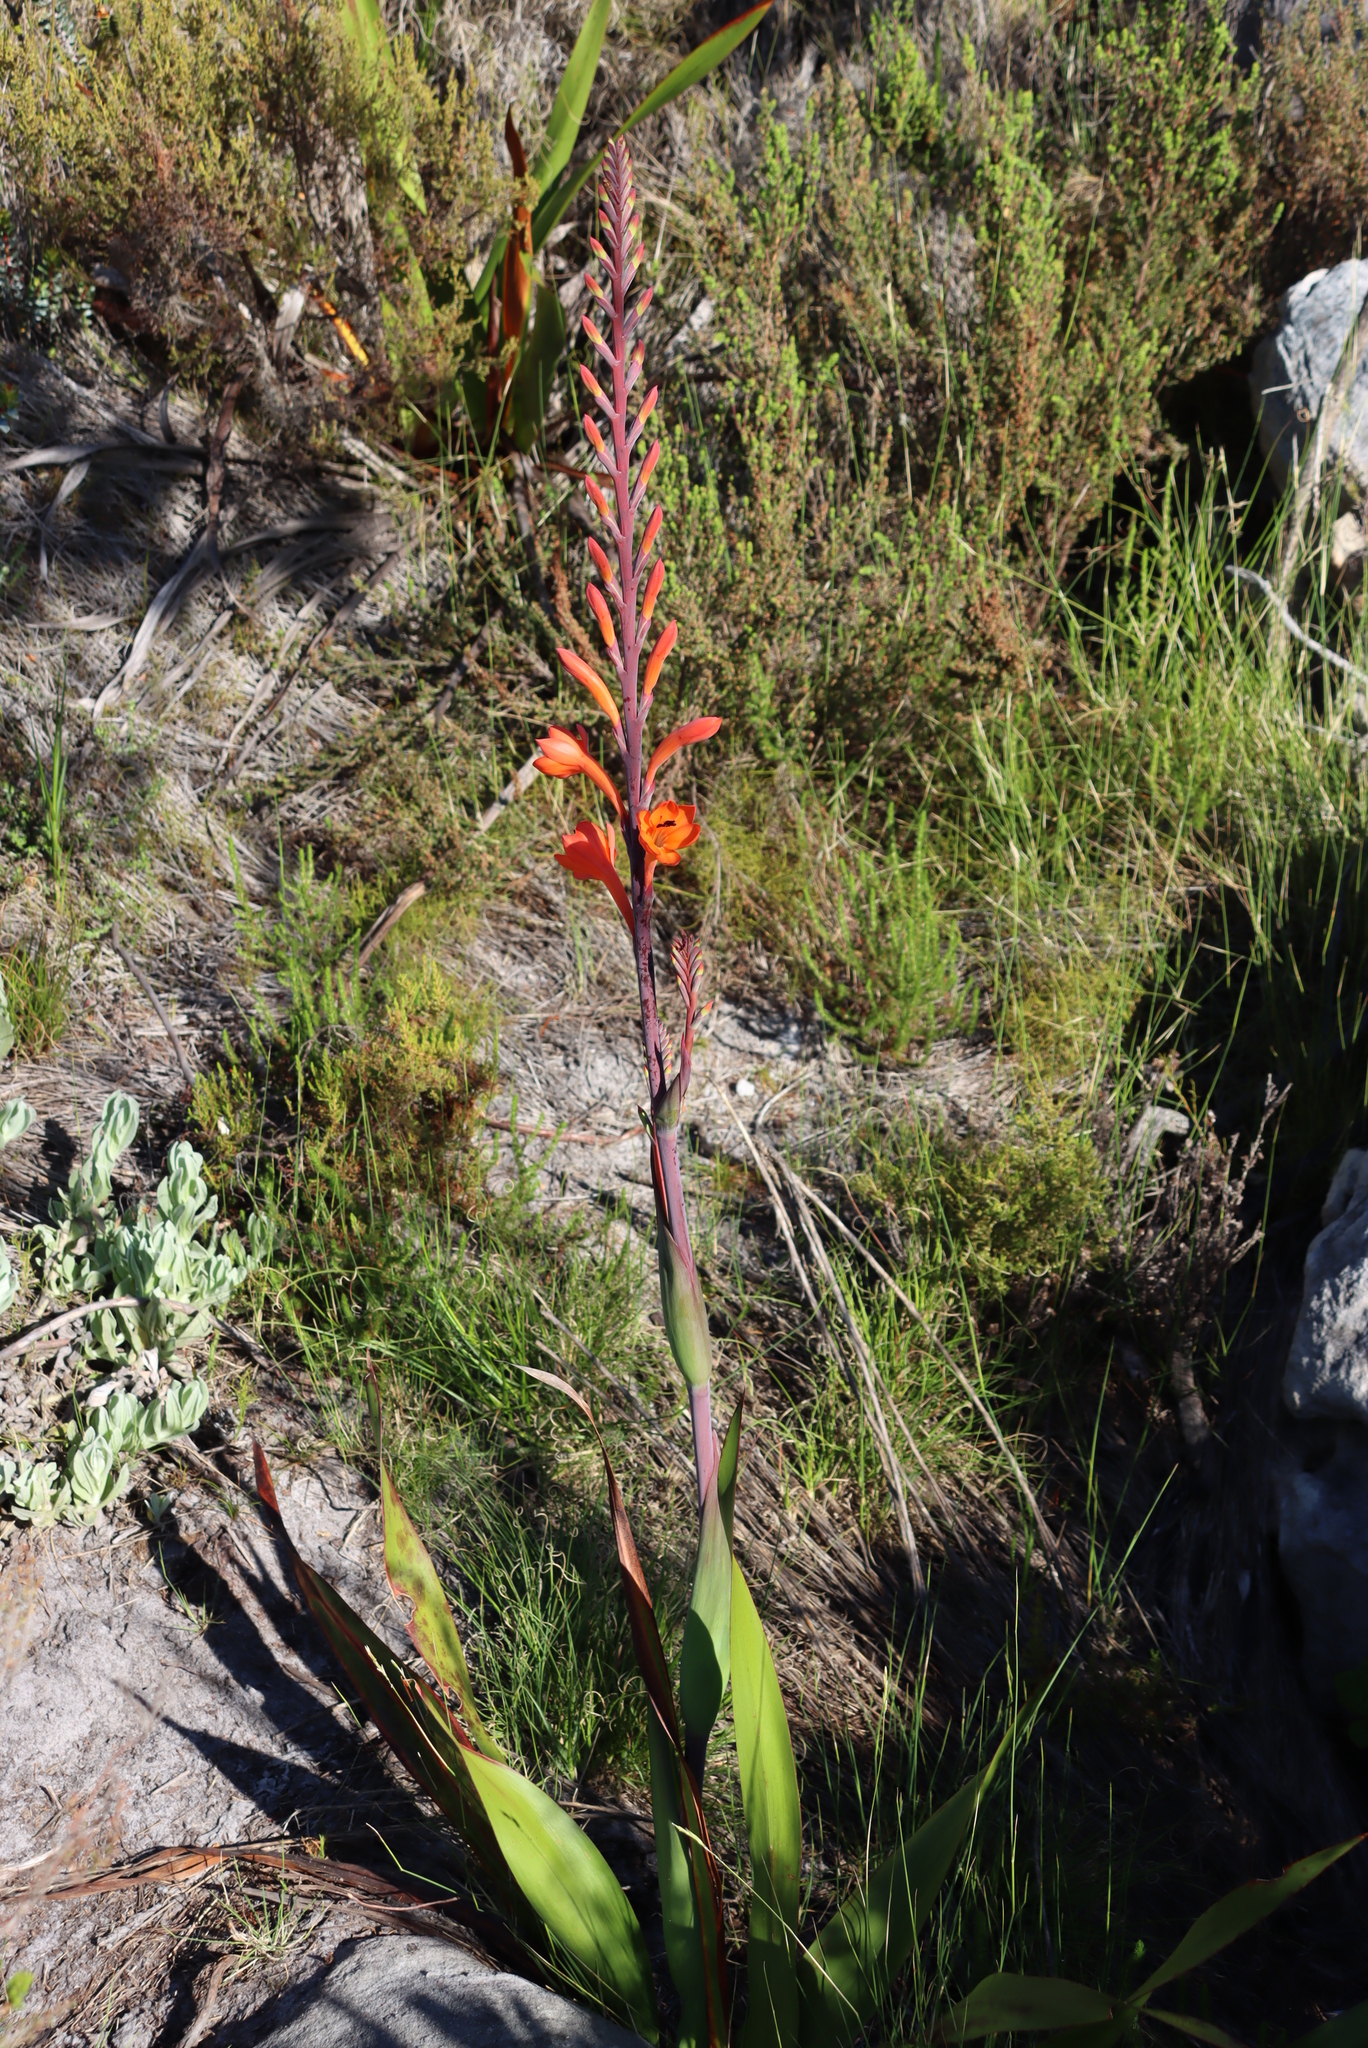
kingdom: Plantae
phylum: Tracheophyta
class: Liliopsida
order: Asparagales
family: Iridaceae
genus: Watsonia
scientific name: Watsonia tabularis
